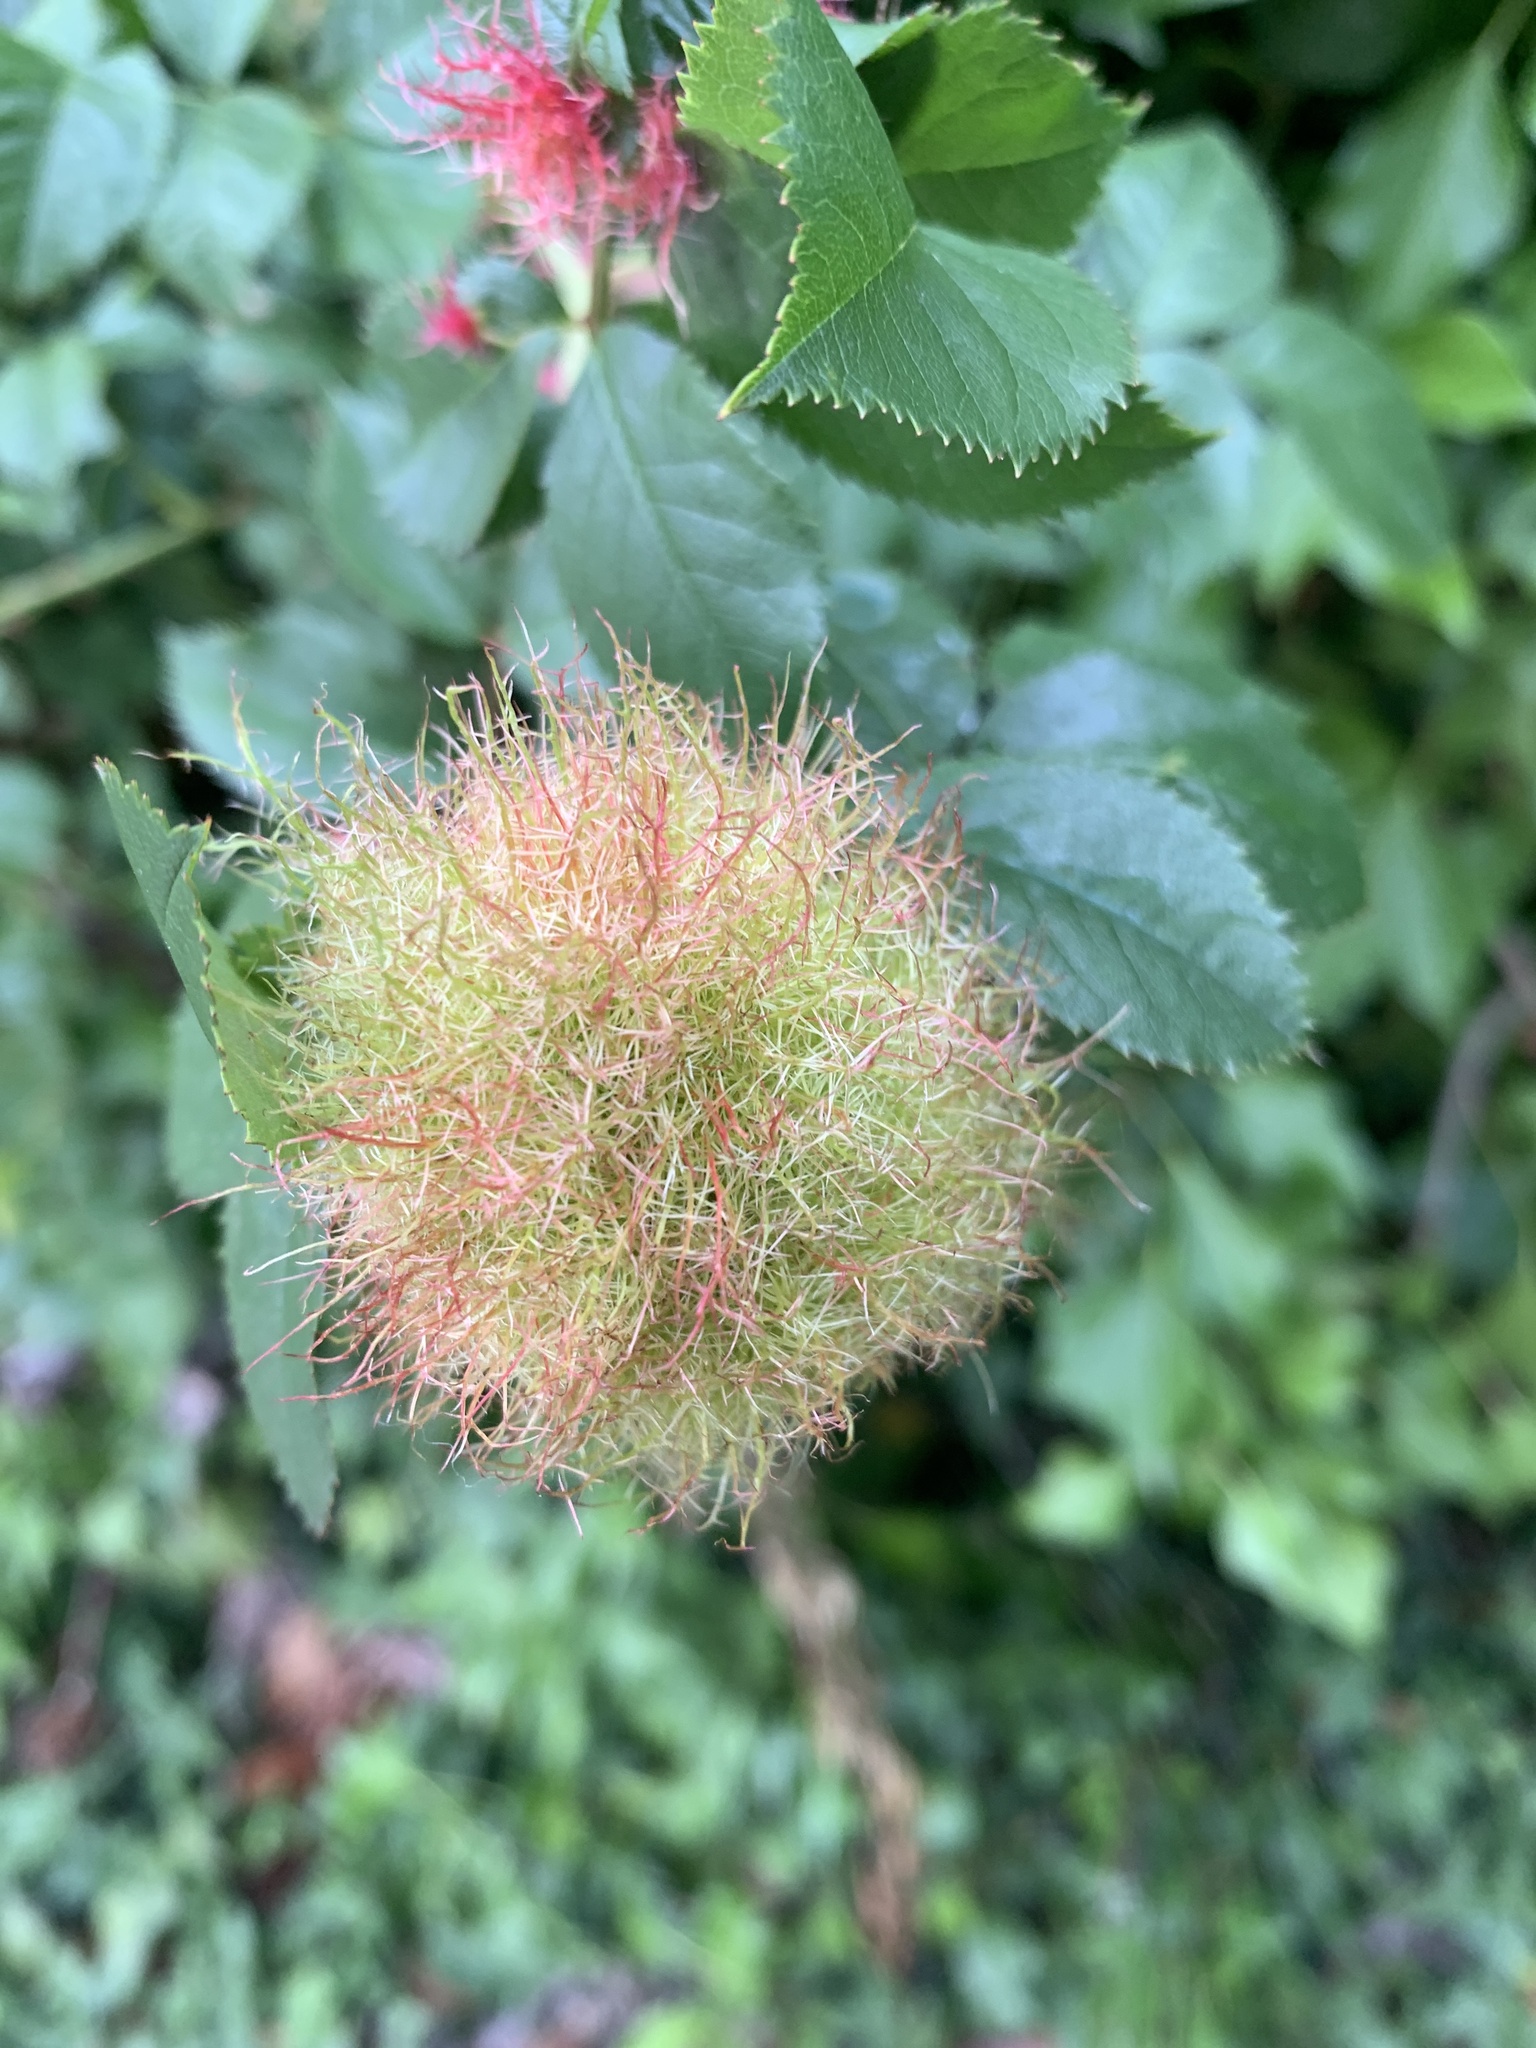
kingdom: Animalia
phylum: Arthropoda
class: Insecta
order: Hymenoptera
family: Cynipidae
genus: Diplolepis
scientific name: Diplolepis rosae
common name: Bedeguar gall
